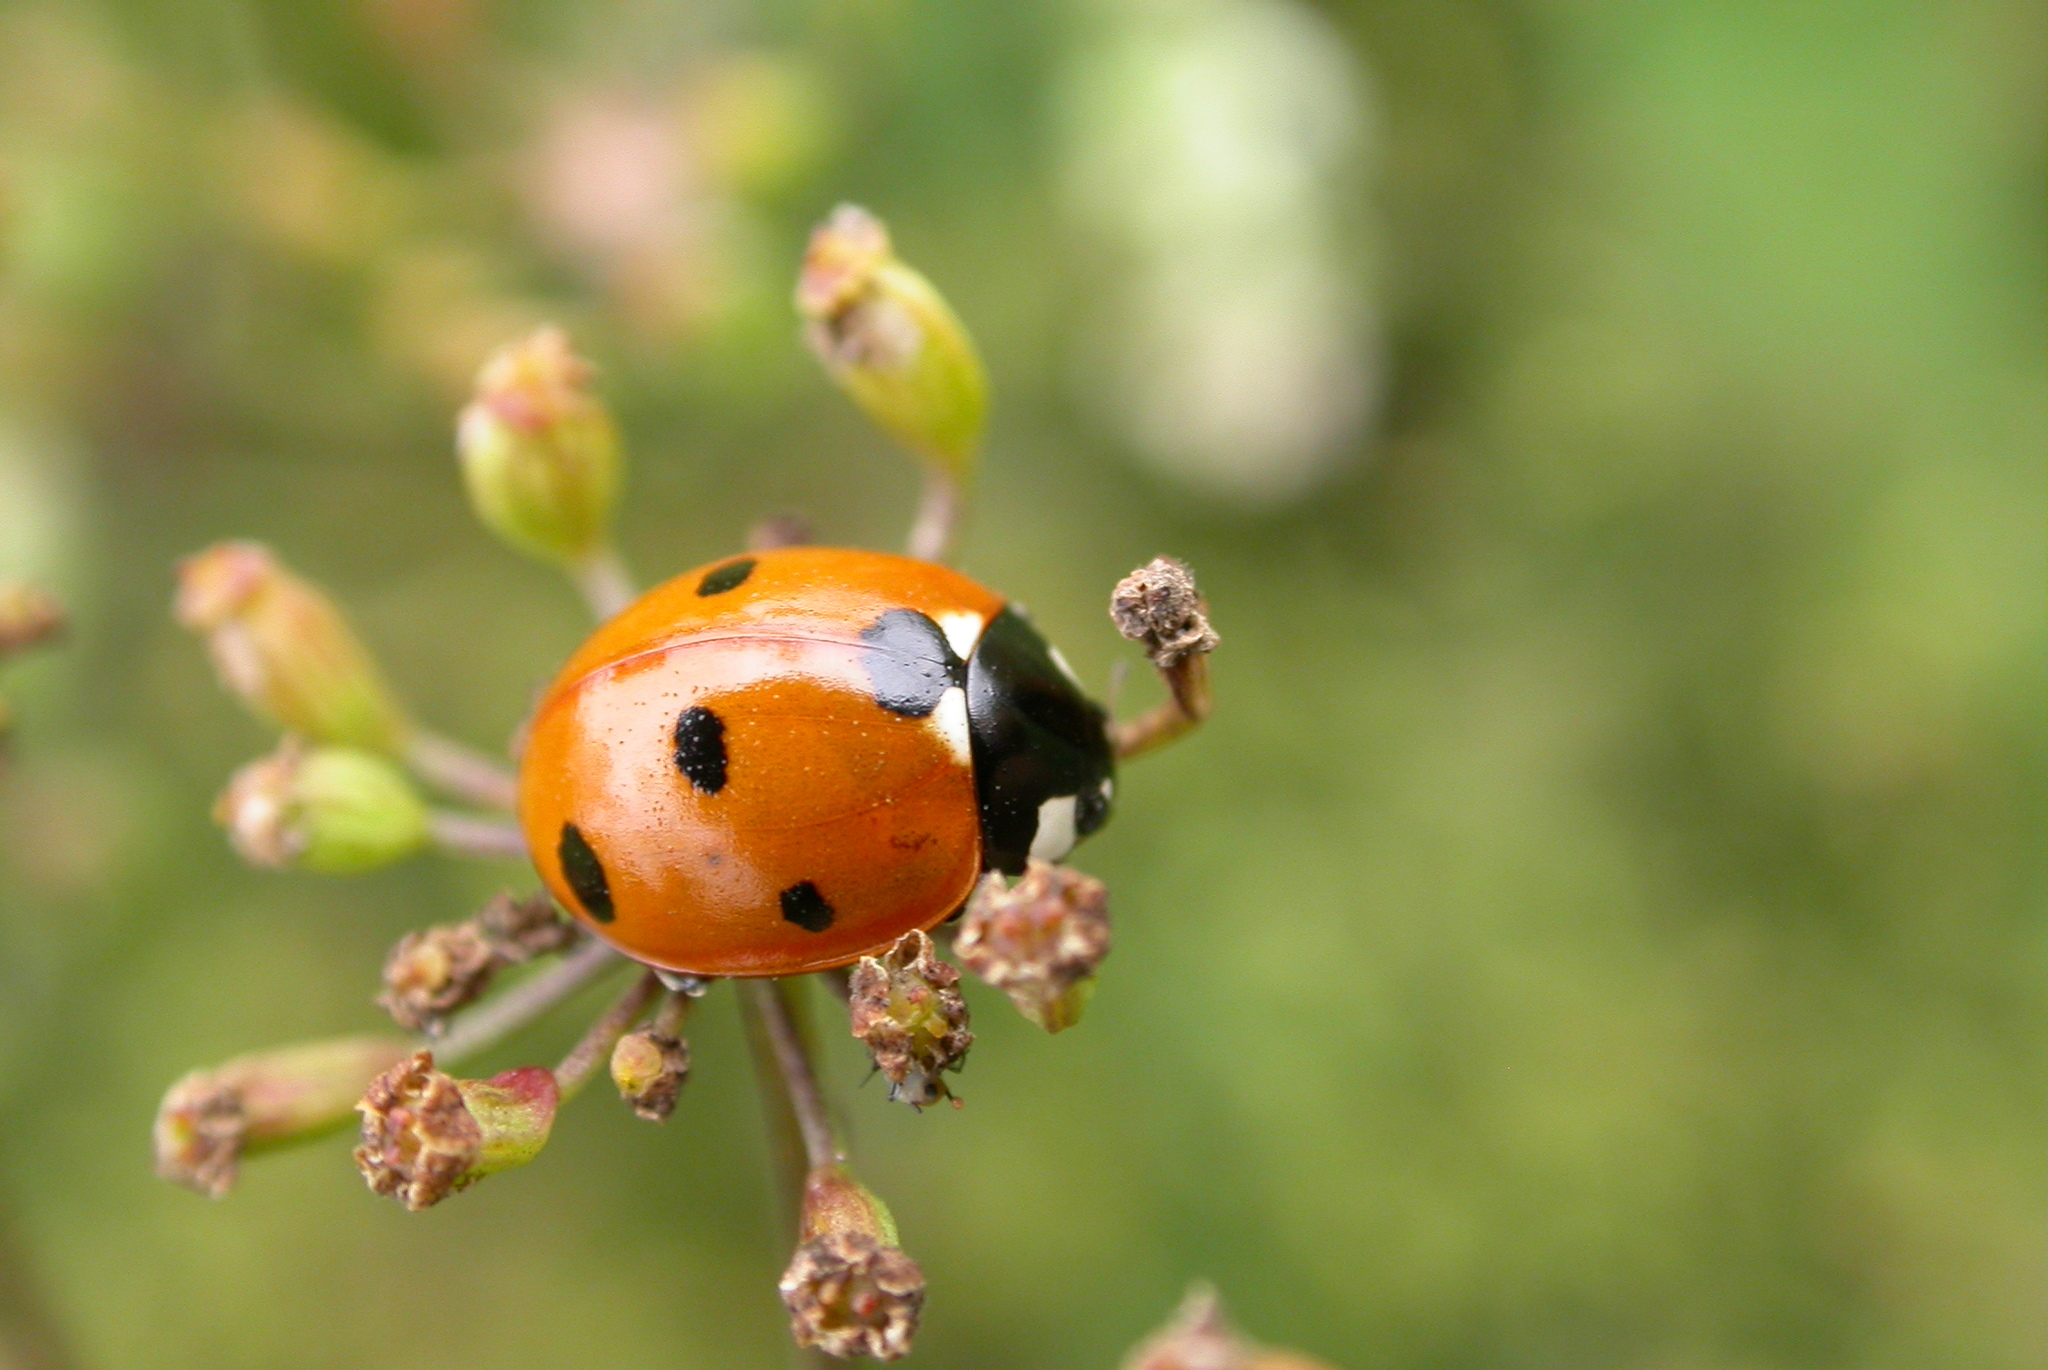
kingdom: Animalia
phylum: Arthropoda
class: Insecta
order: Coleoptera
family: Coccinellidae
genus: Coccinella
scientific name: Coccinella septempunctata
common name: Sevenspotted lady beetle
